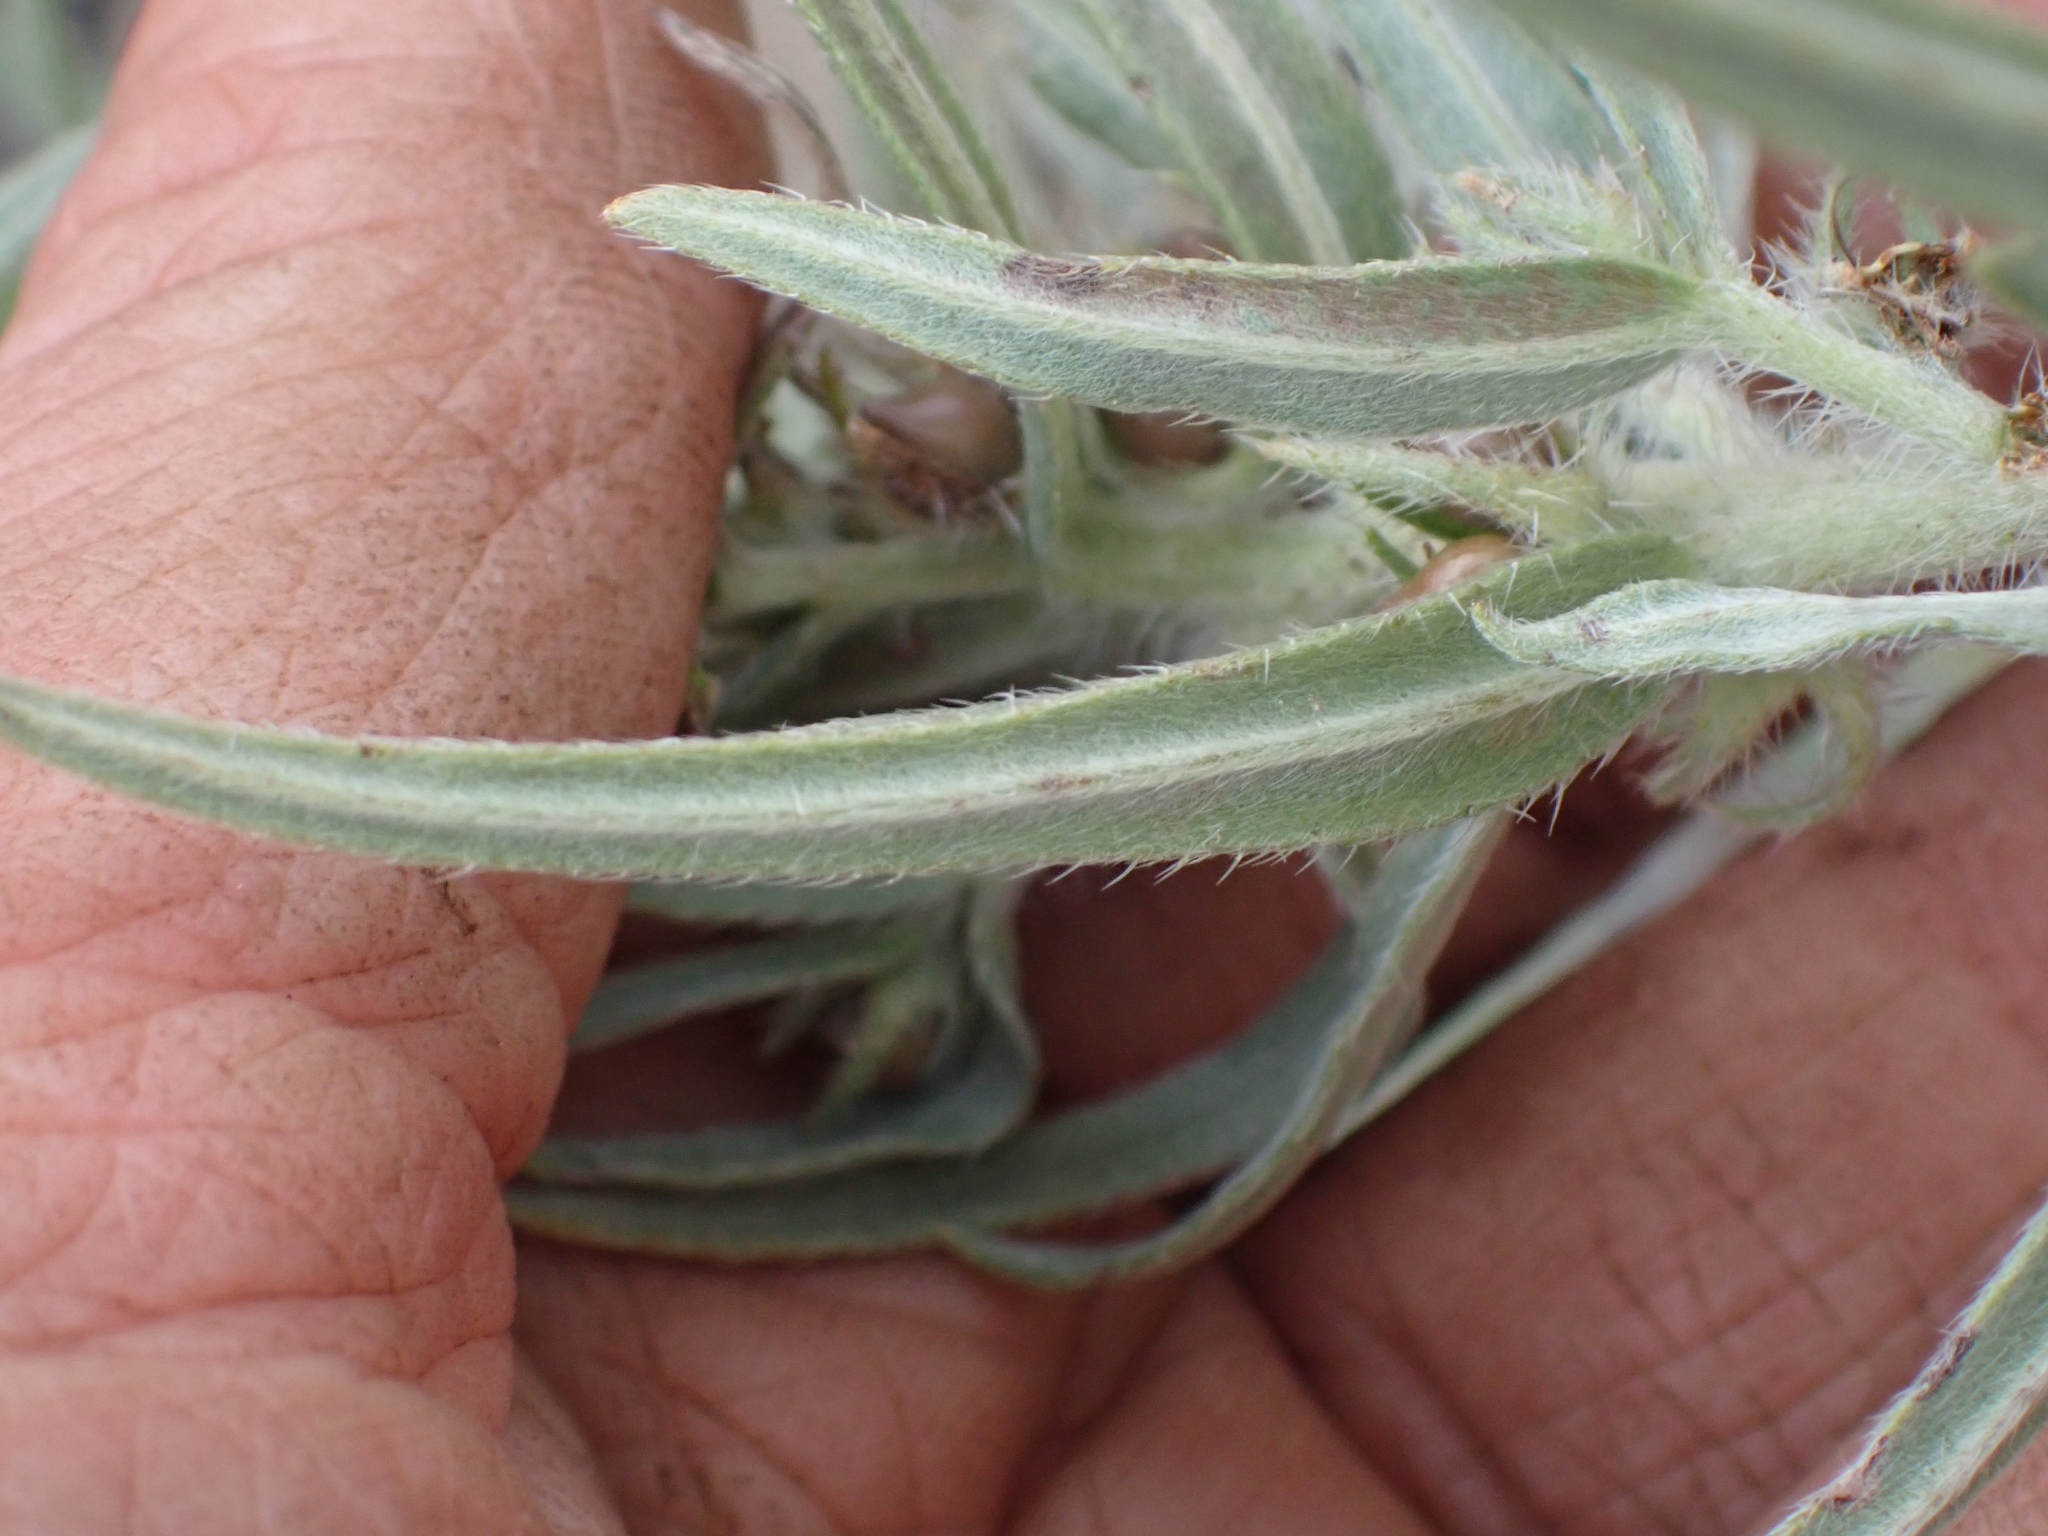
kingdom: Plantae
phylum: Tracheophyta
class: Magnoliopsida
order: Boraginales
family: Boraginaceae
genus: Lithospermum
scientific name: Lithospermum ruderale
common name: Western gromwell
